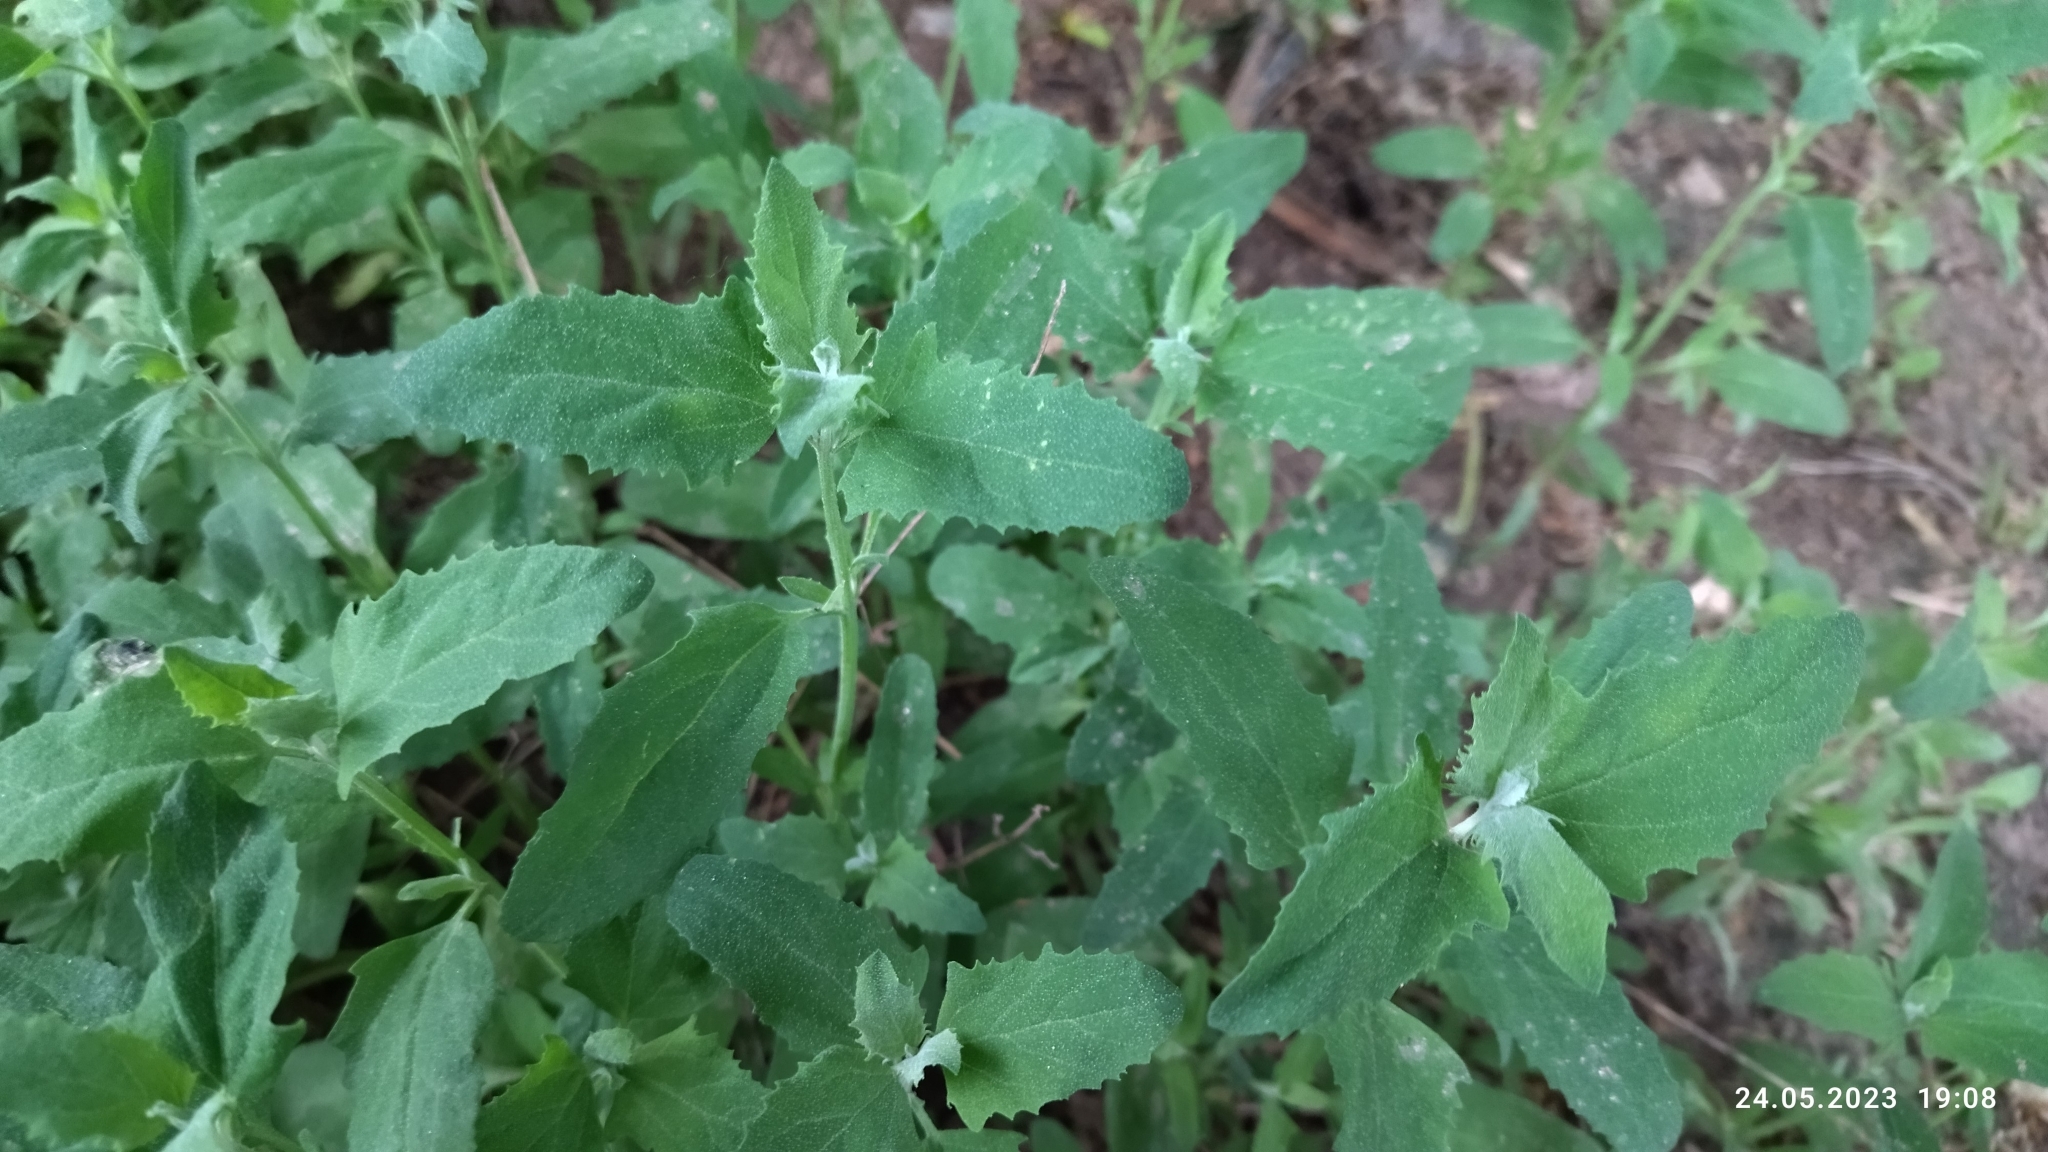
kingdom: Plantae
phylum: Tracheophyta
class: Magnoliopsida
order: Caryophyllales
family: Amaranthaceae
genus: Atriplex
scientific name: Atriplex patula
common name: Common orache
